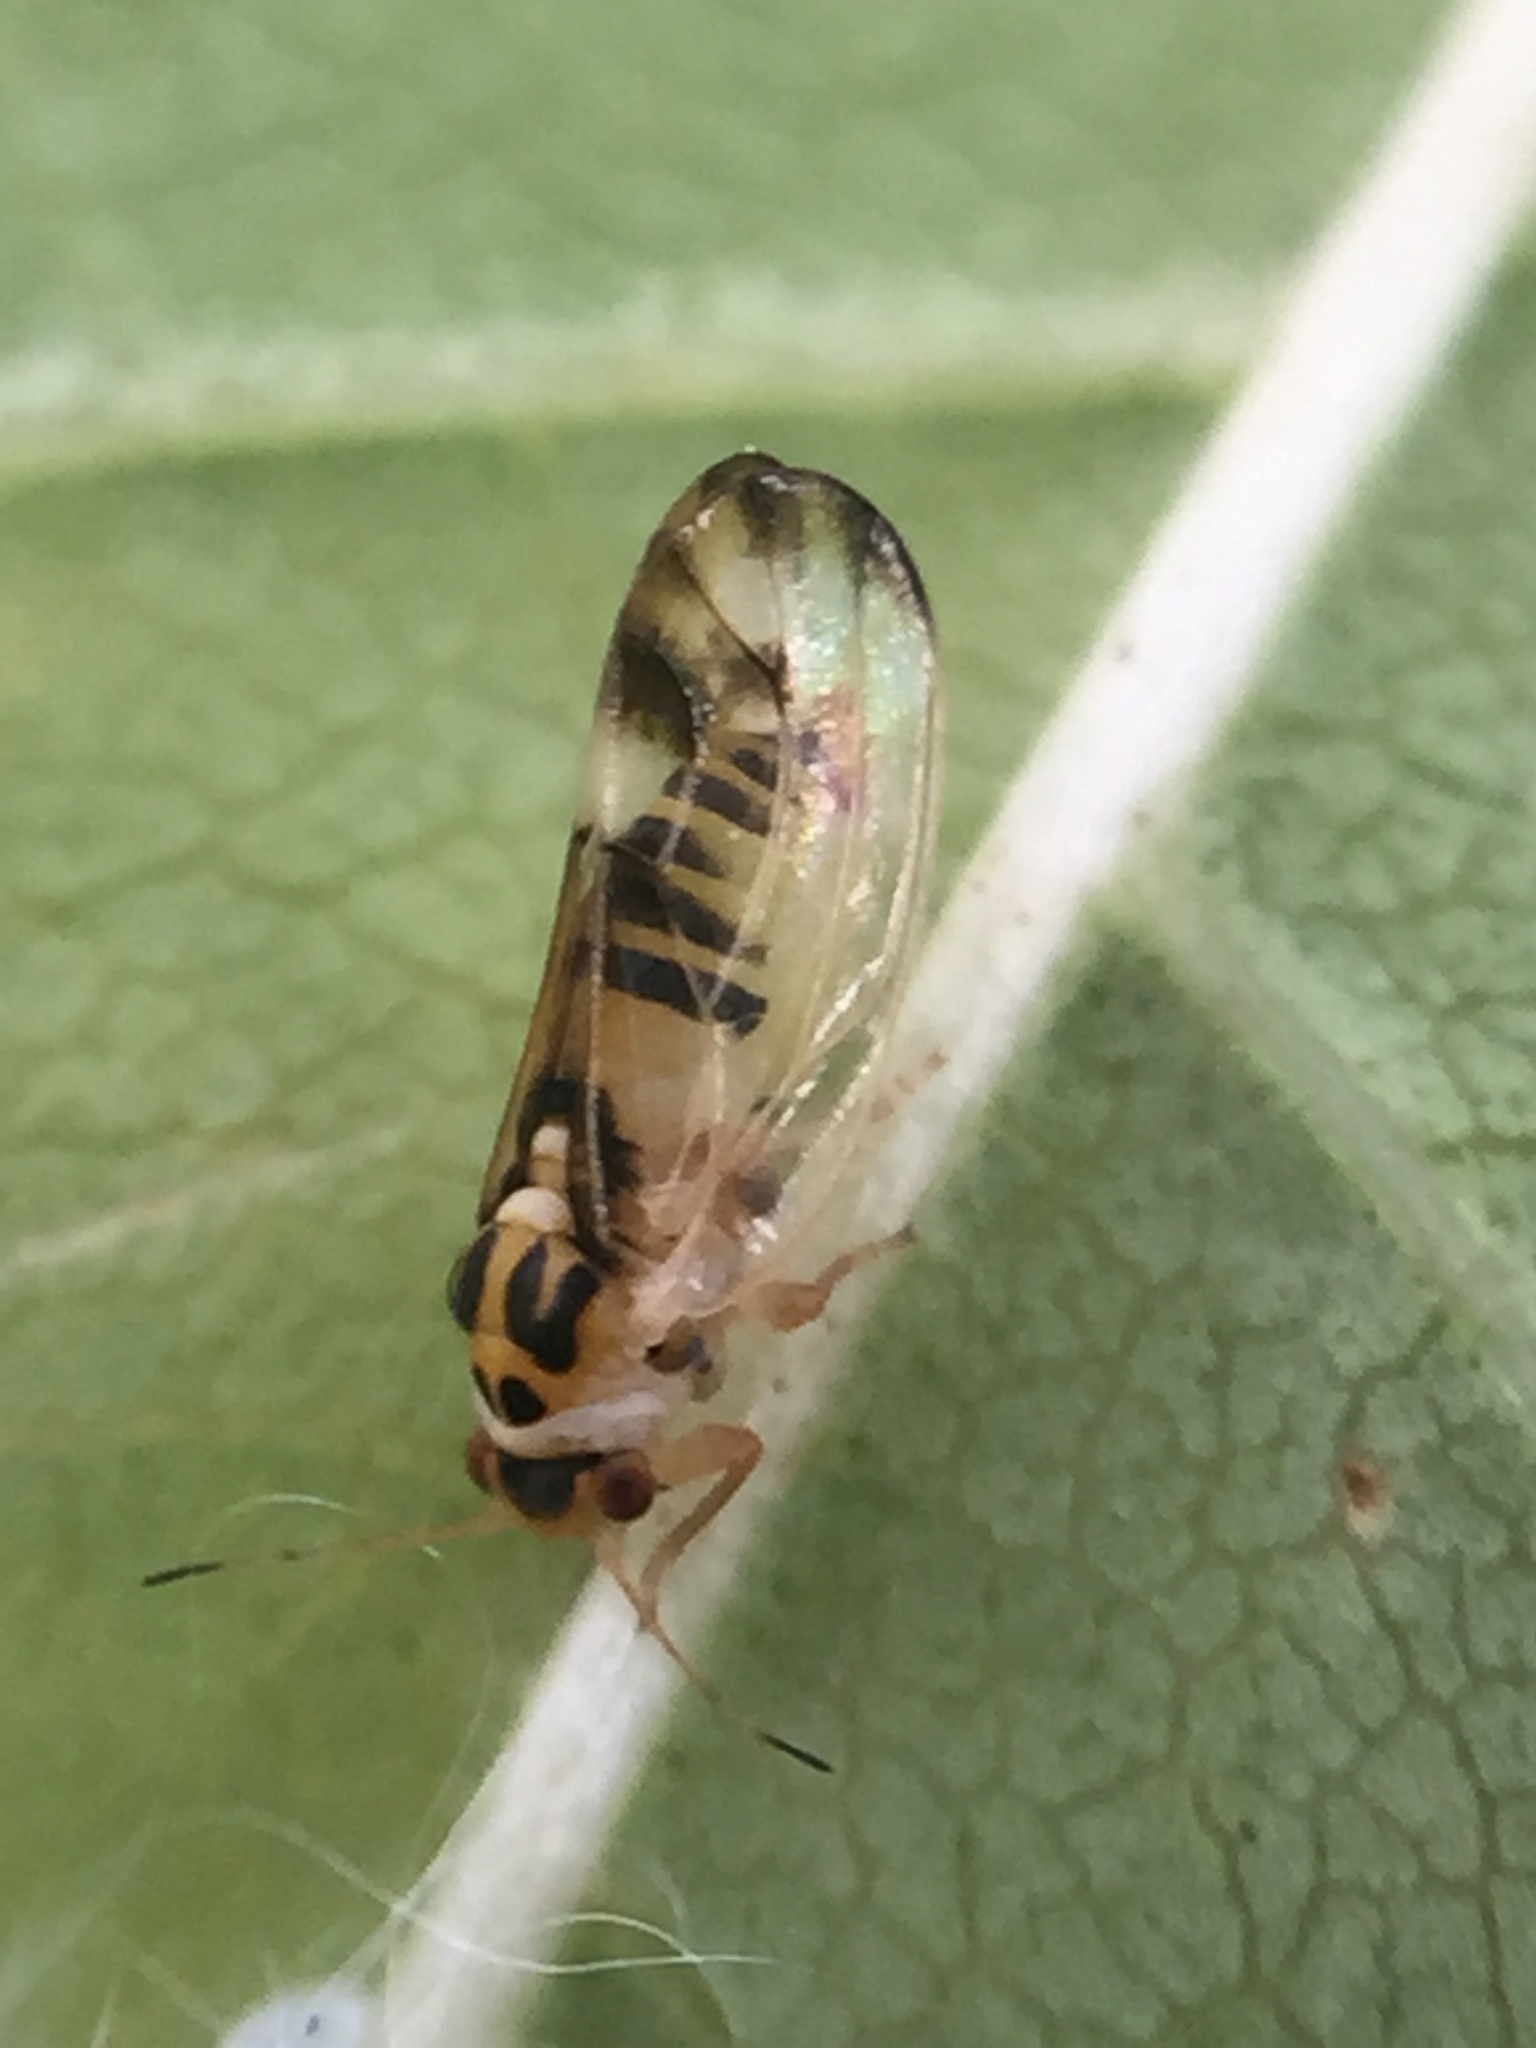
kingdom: Animalia
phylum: Arthropoda
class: Insecta
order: Hemiptera
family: Liviidae
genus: Psyllopsis
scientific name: Psyllopsis fraxini
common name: Jumping plant louse
